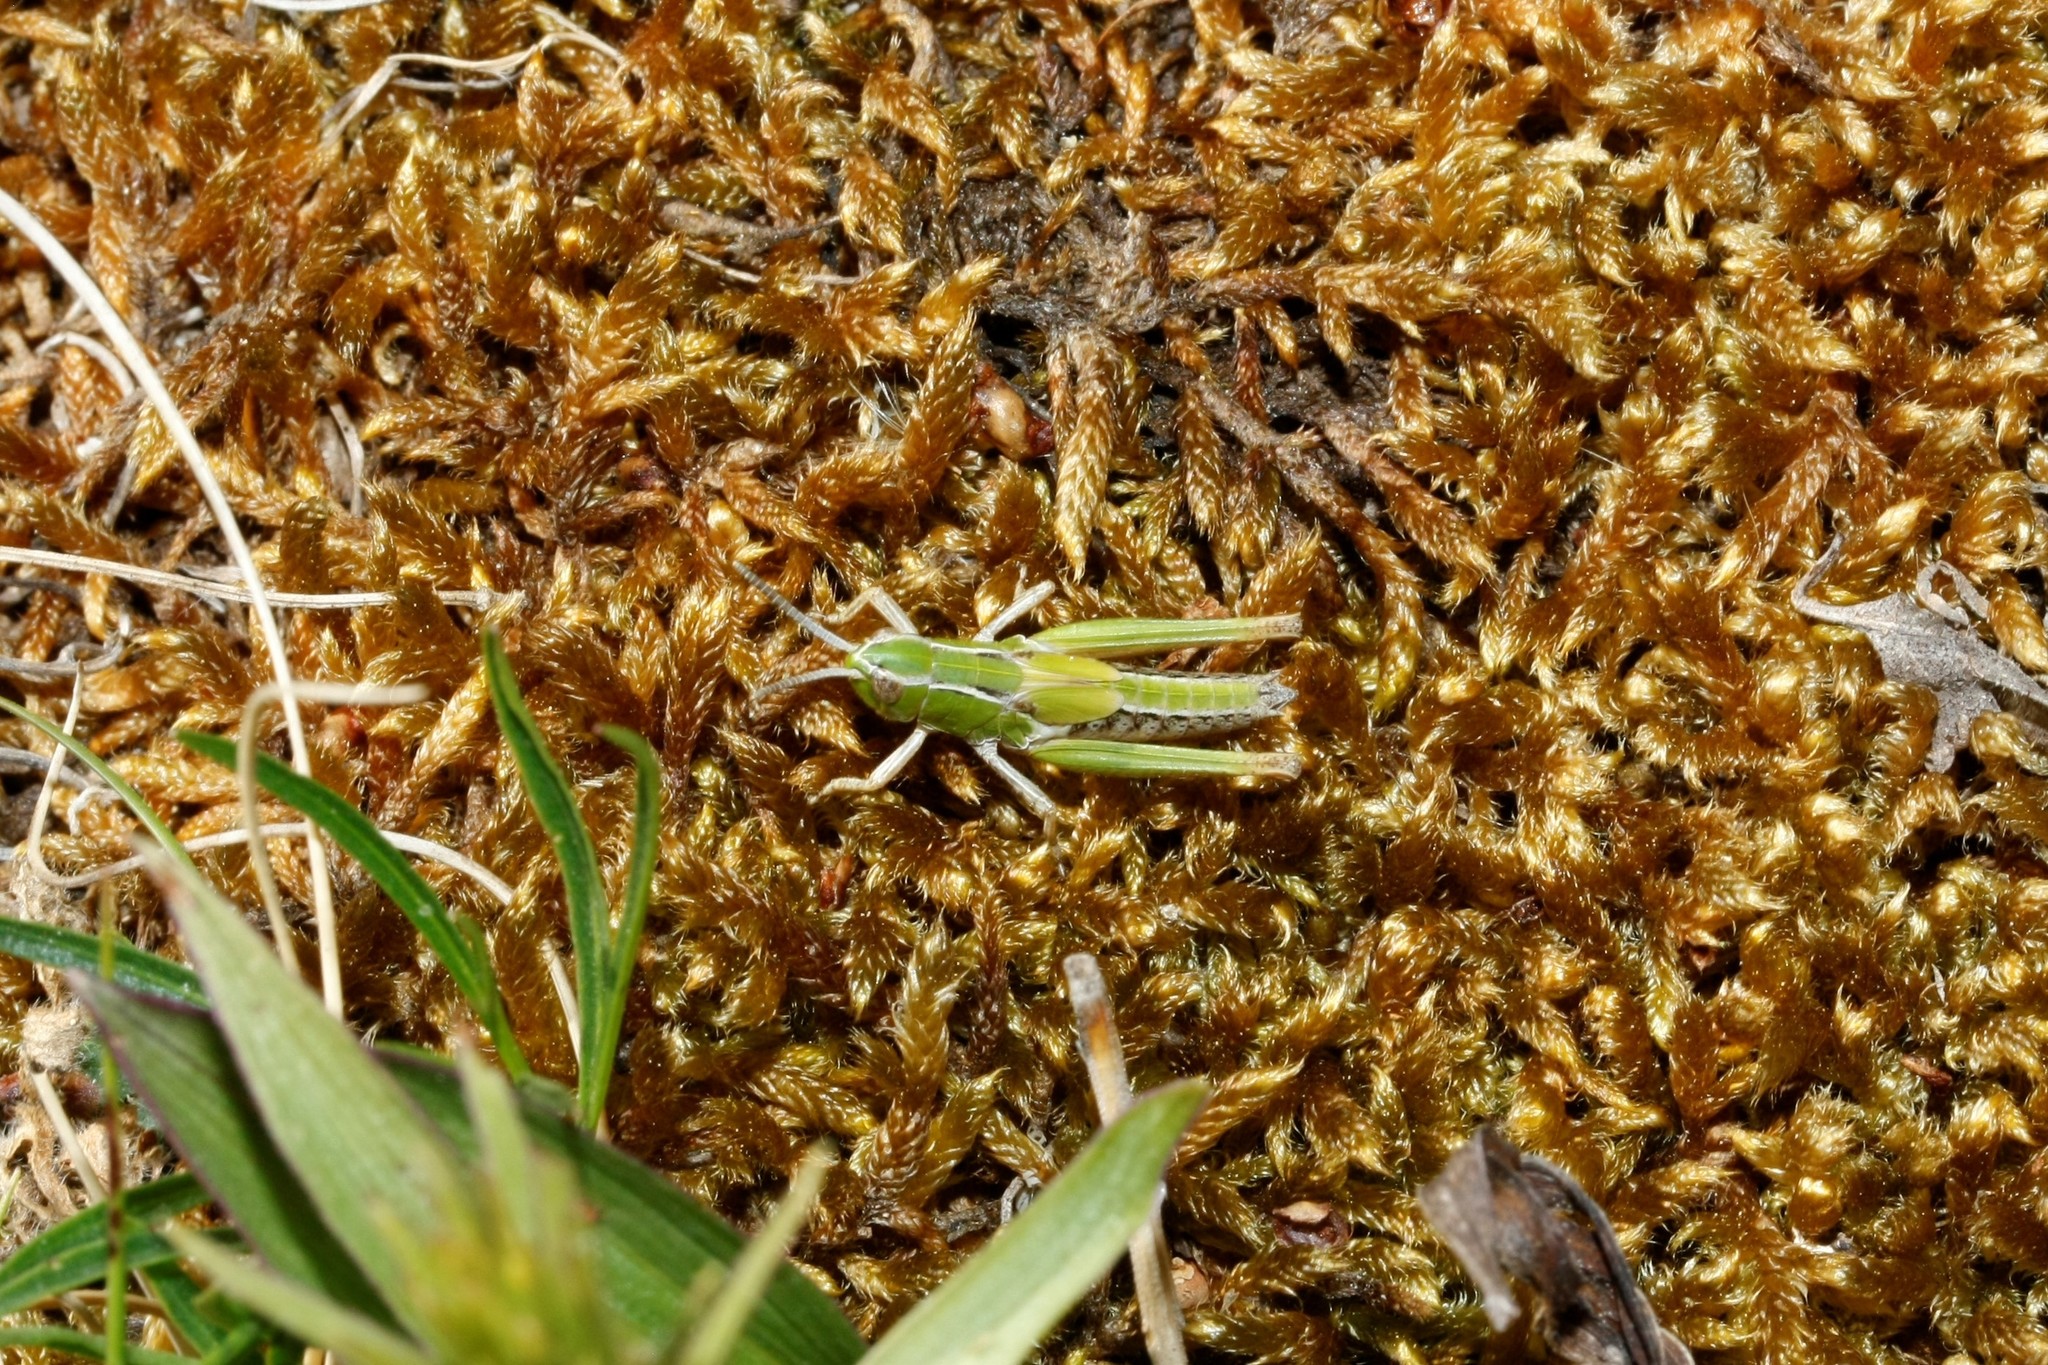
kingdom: Animalia
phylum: Arthropoda
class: Insecta
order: Orthoptera
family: Acrididae
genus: Stenobothrus
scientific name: Stenobothrus lineatus
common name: Stripe-winged grasshopper
